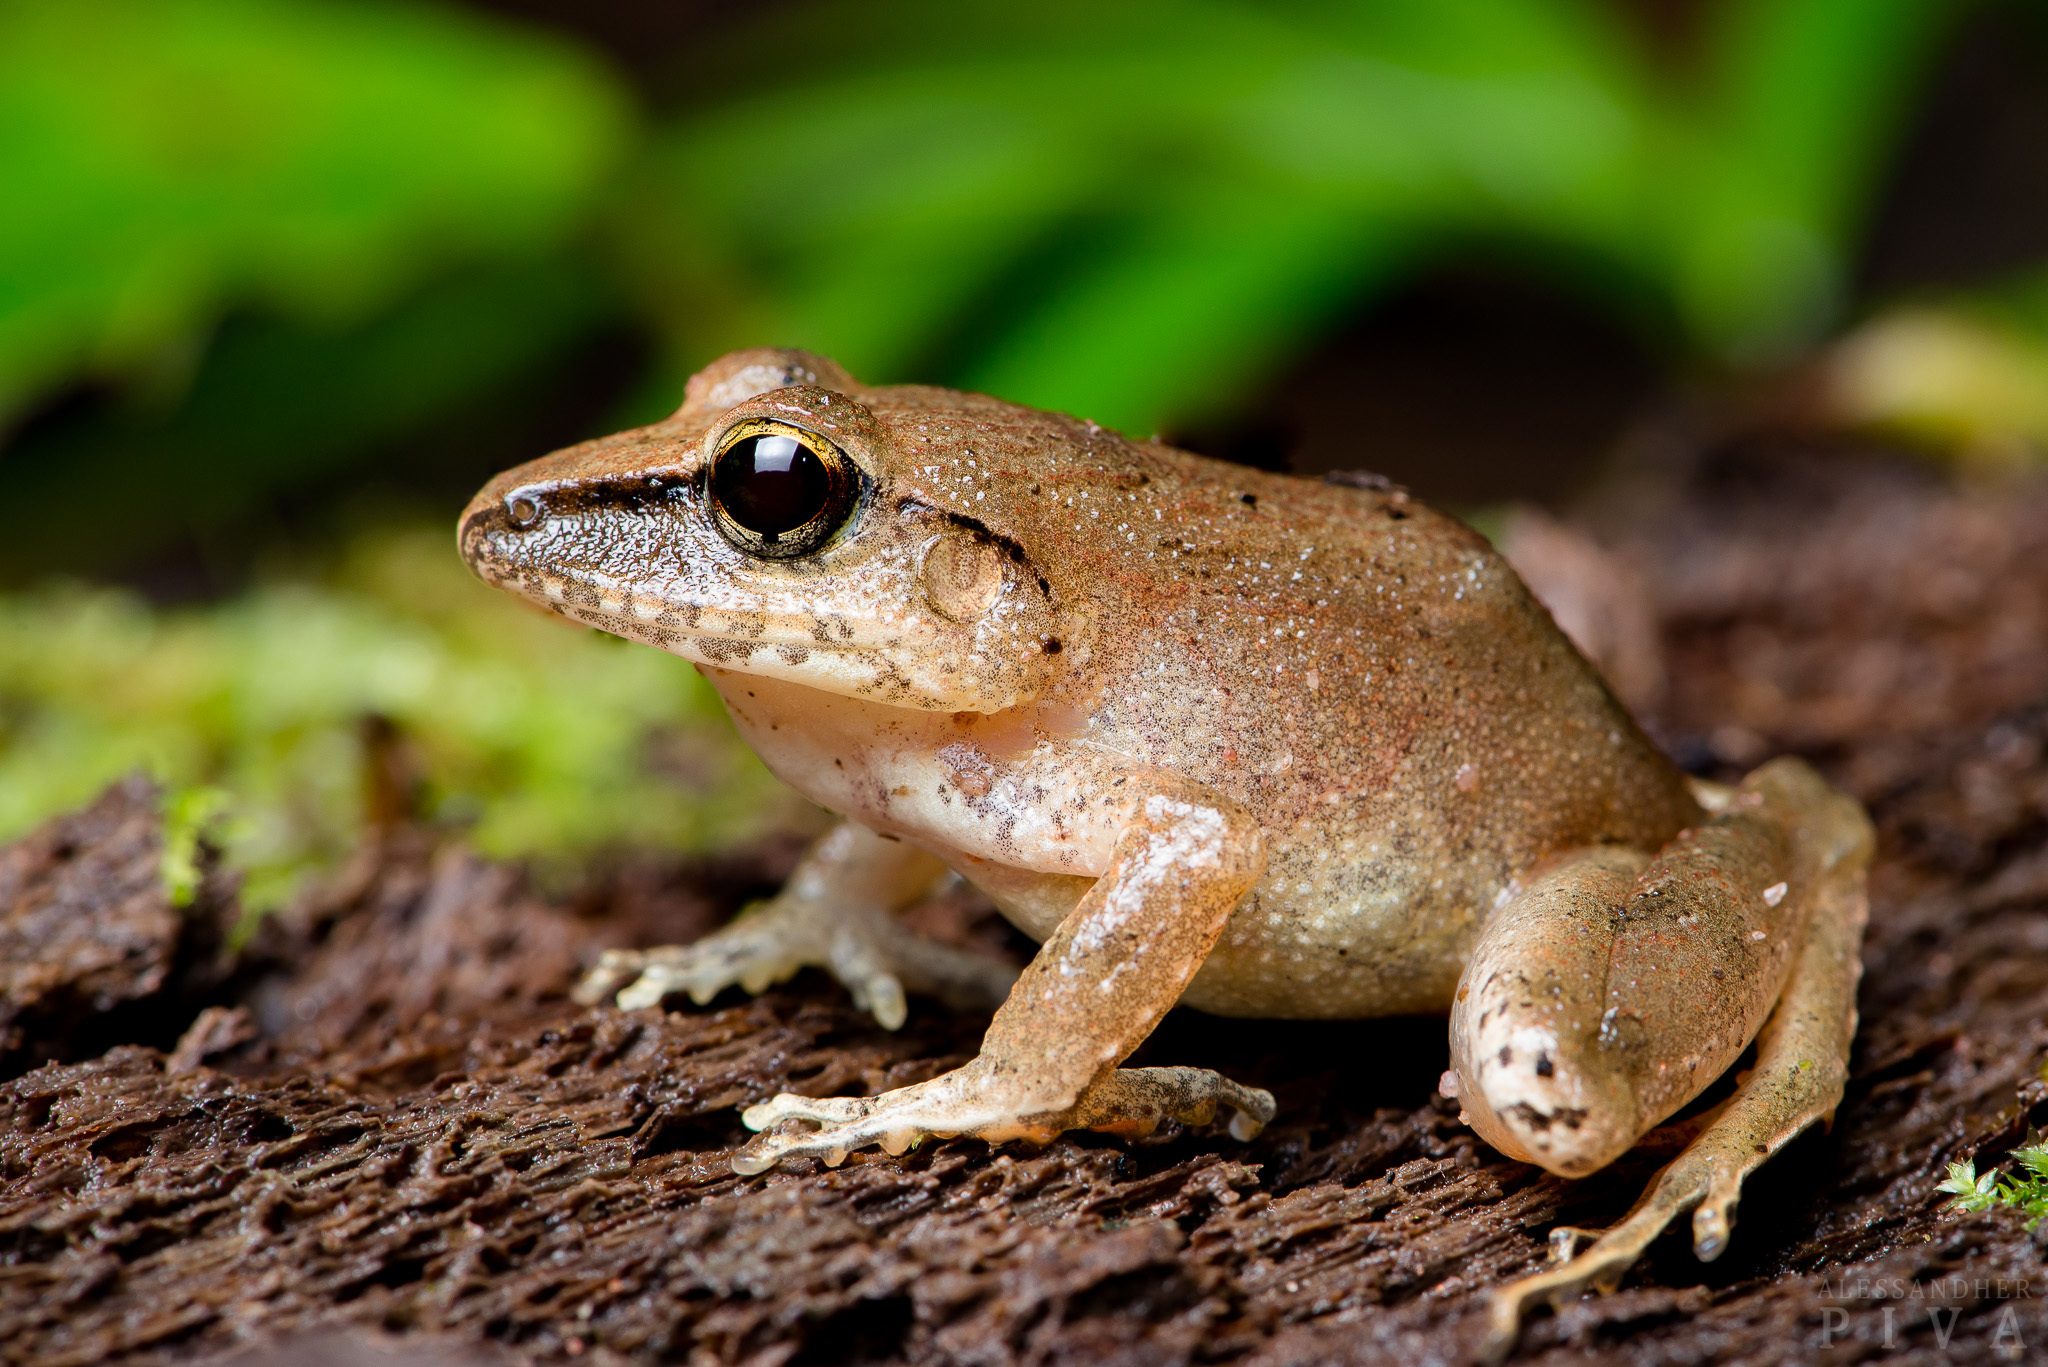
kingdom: Animalia
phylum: Chordata
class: Amphibia
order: Anura
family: Craugastoridae
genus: Haddadus
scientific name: Haddadus binotatus
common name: Clay robber frog
